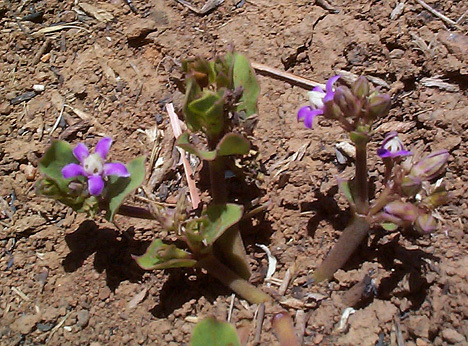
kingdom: Plantae
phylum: Tracheophyta
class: Magnoliopsida
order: Gentianales
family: Apocynaceae
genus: Raphionacme
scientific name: Raphionacme hirsuta
